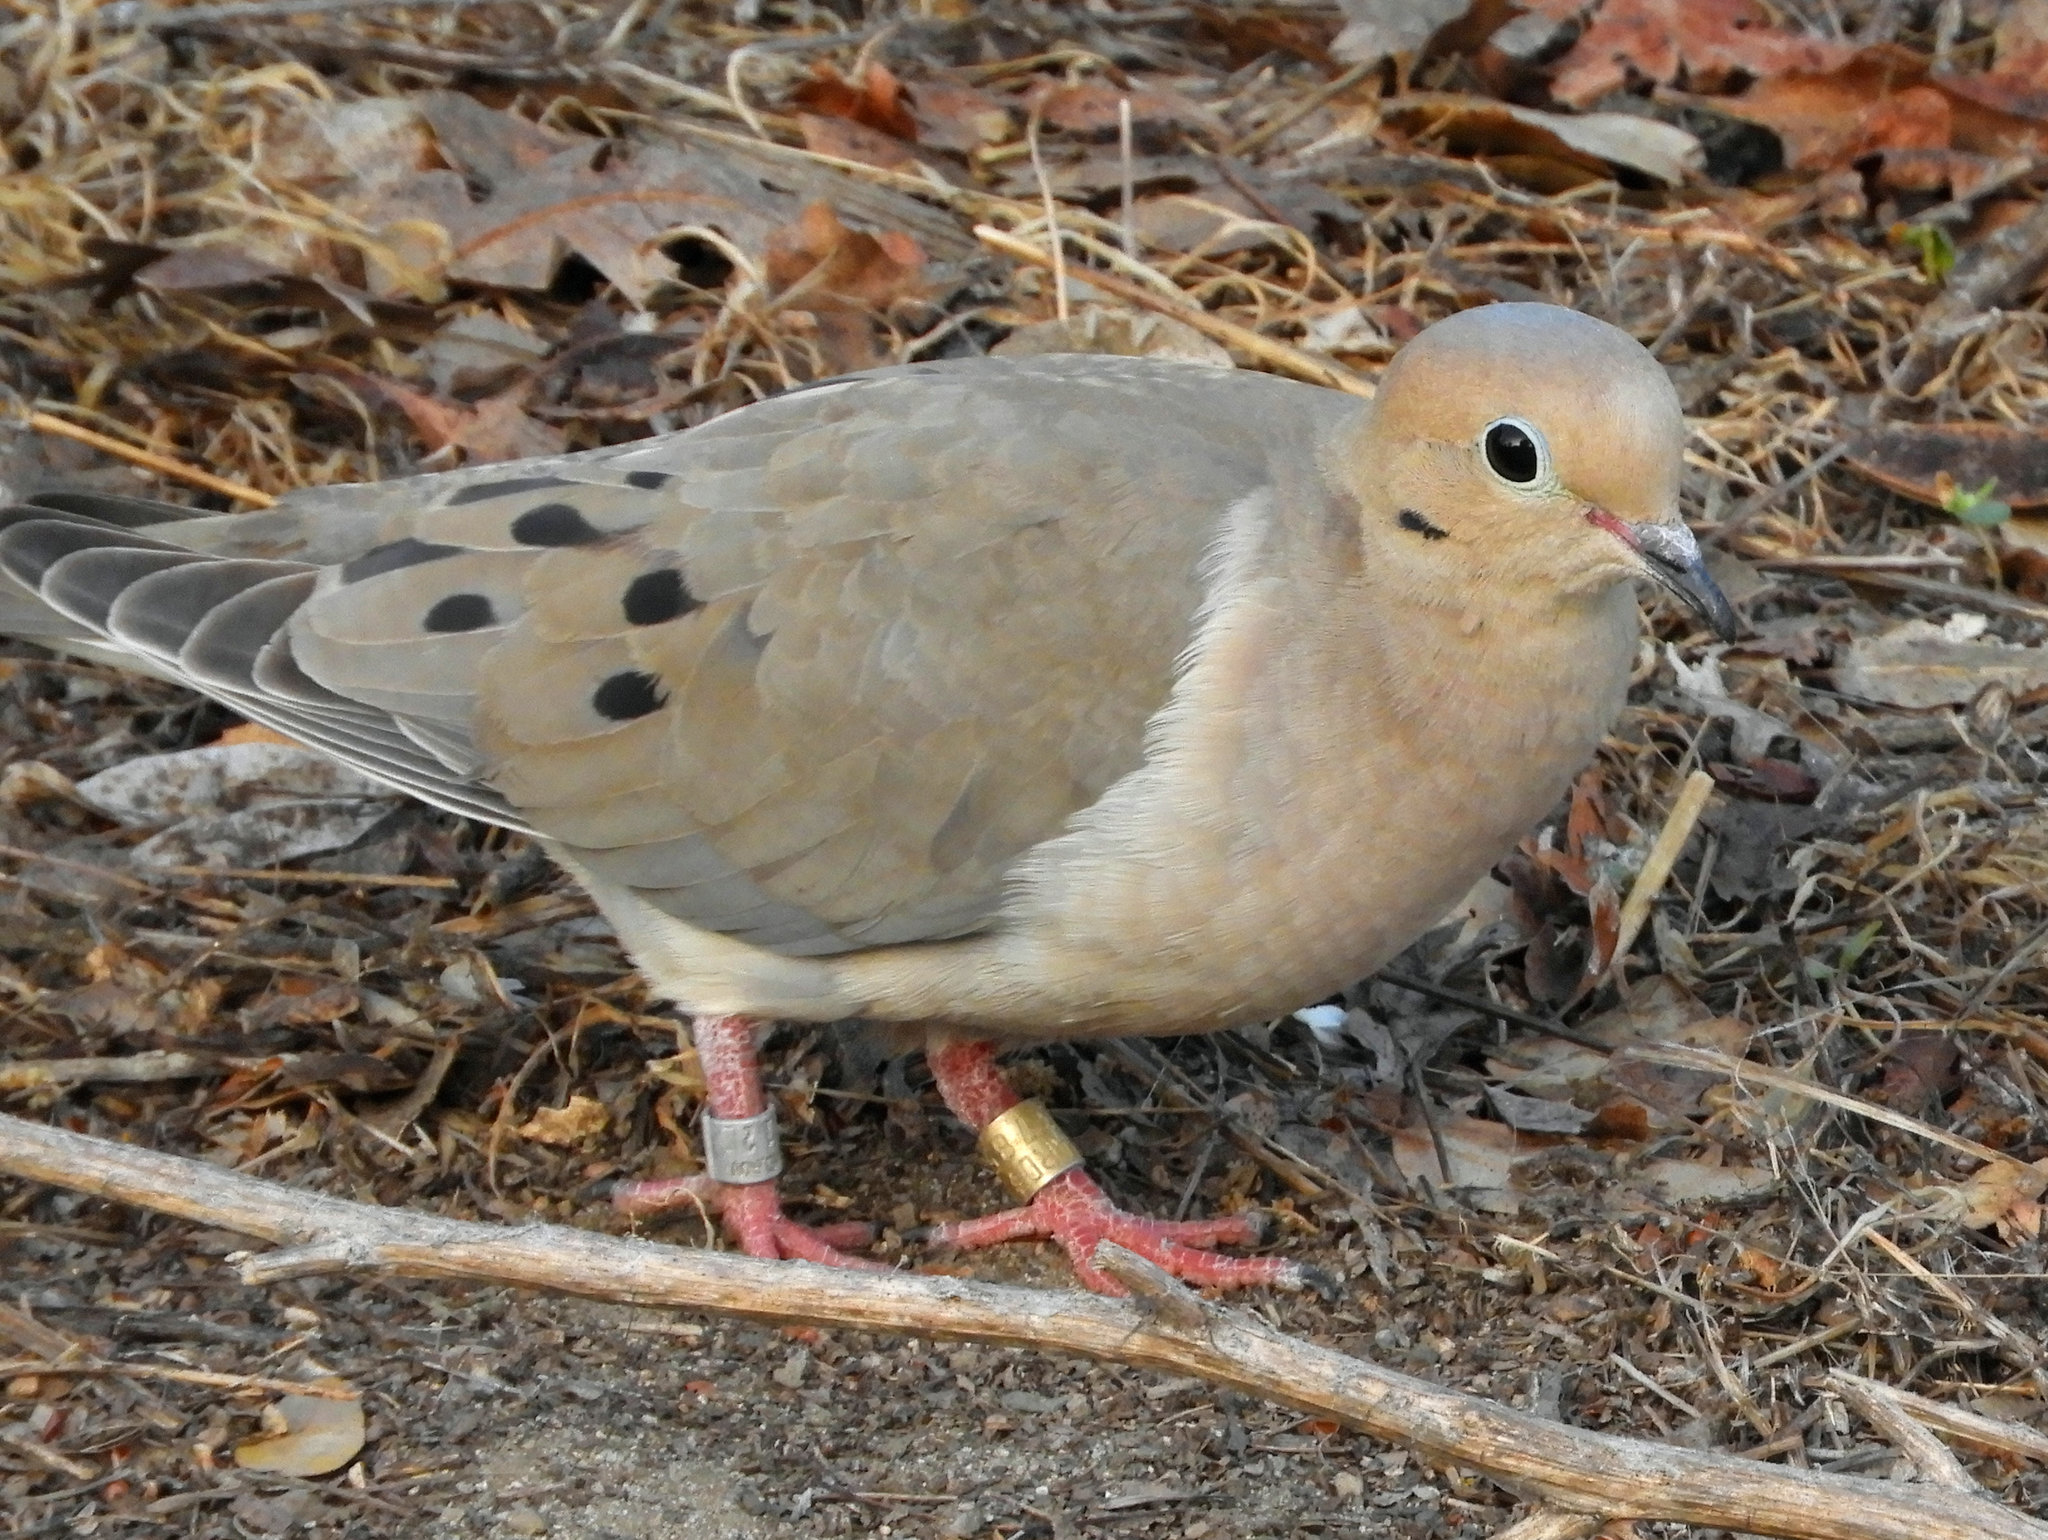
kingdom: Animalia
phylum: Chordata
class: Aves
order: Columbiformes
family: Columbidae
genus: Zenaida
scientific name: Zenaida macroura
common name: Mourning dove
